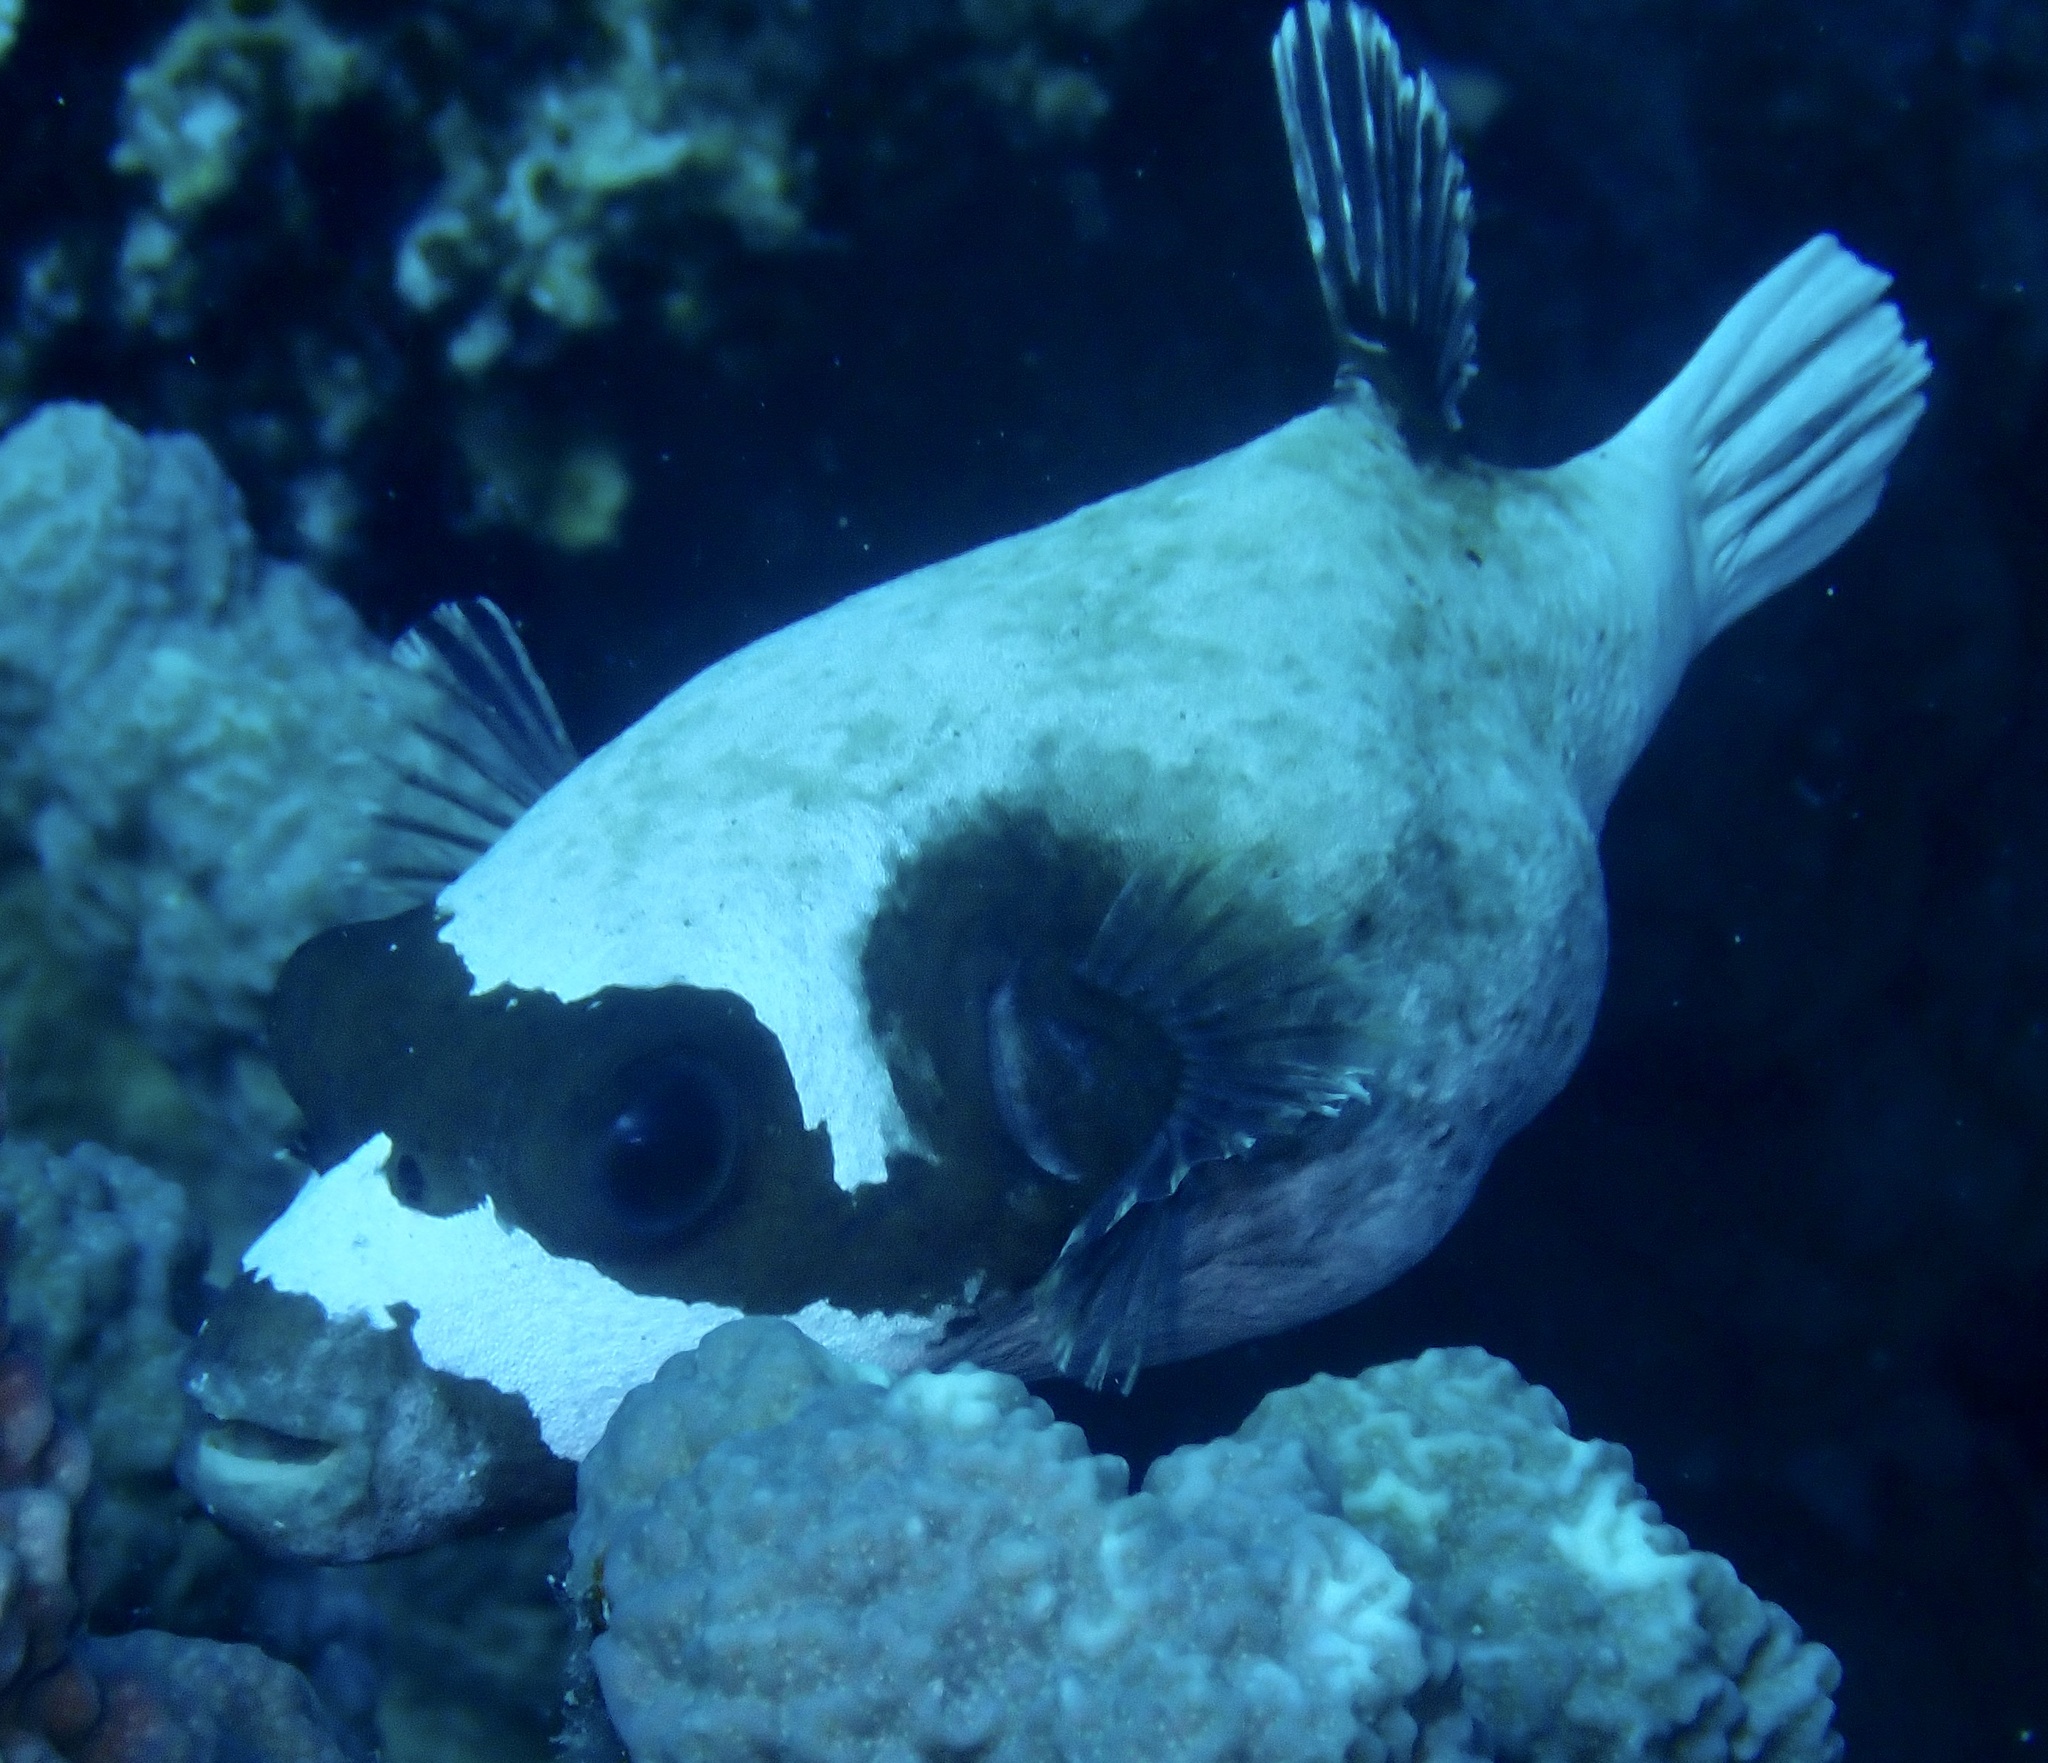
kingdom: Animalia
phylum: Chordata
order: Tetraodontiformes
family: Tetraodontidae
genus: Arothron
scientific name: Arothron diadematus
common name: Masked puffer
